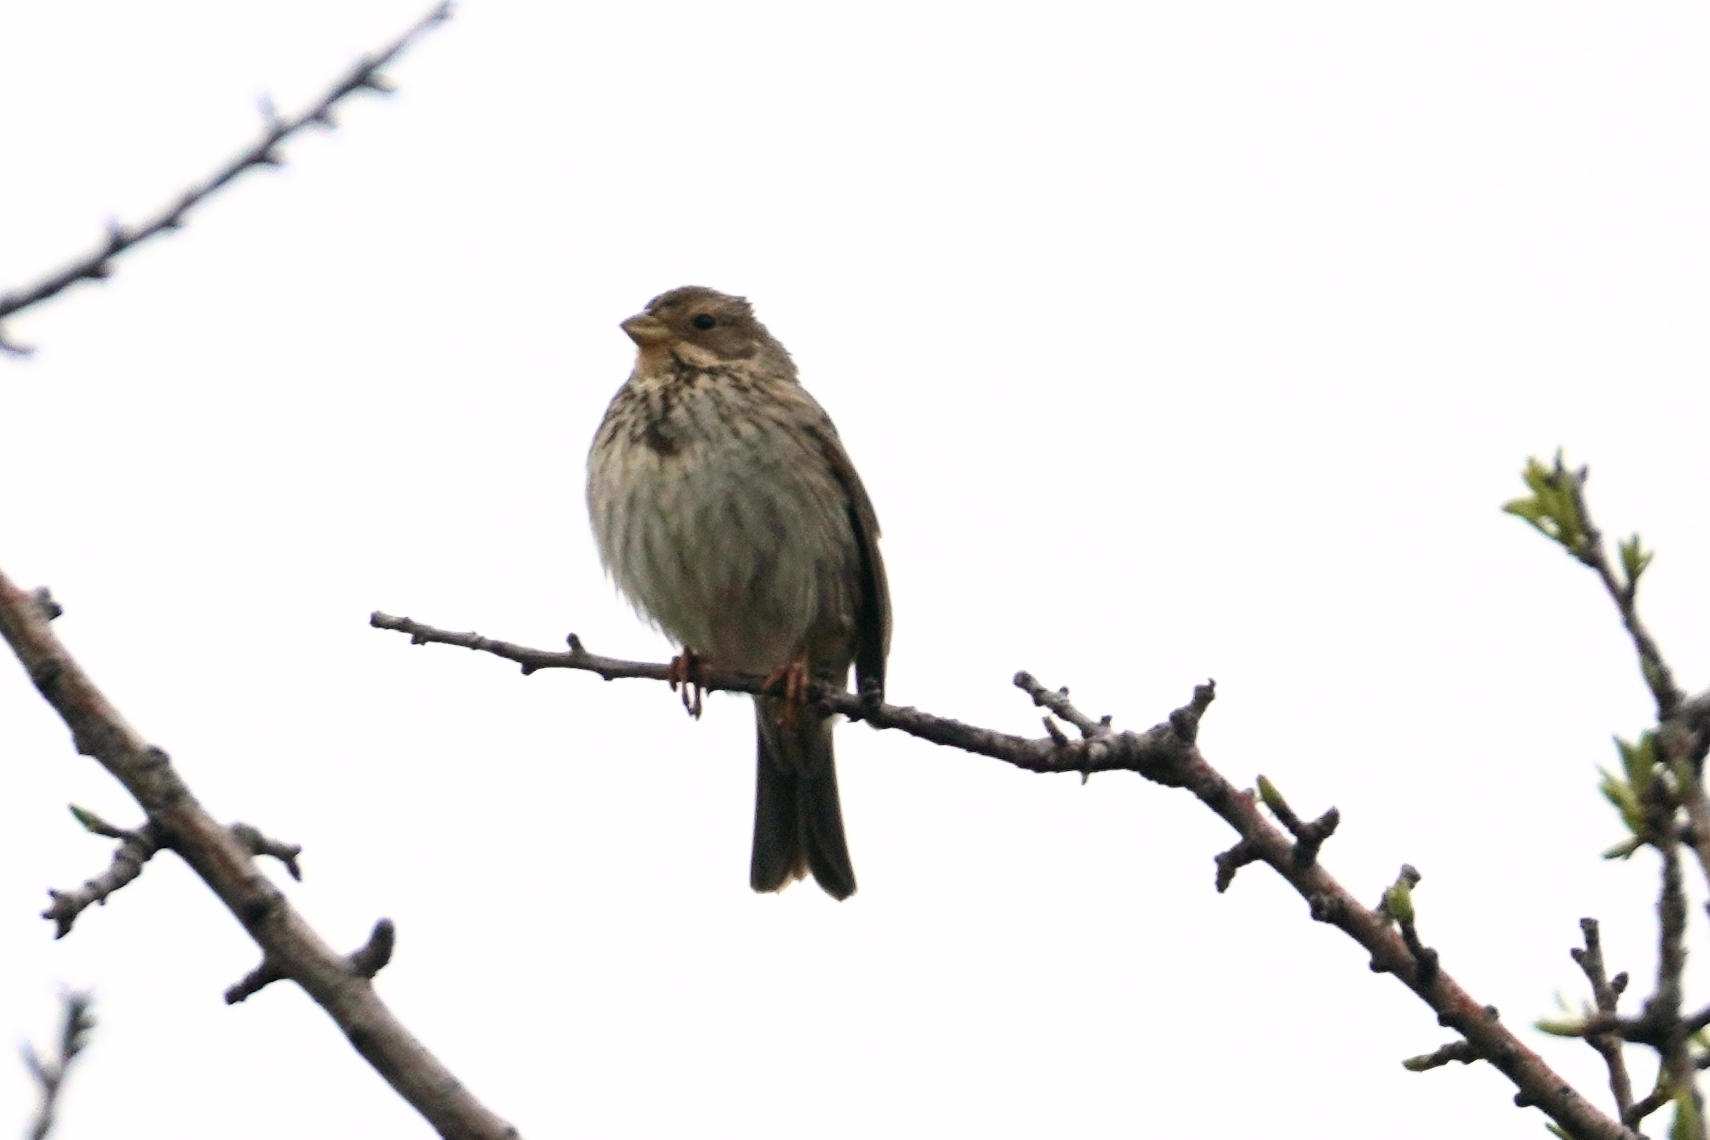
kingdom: Animalia
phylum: Chordata
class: Aves
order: Passeriformes
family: Emberizidae
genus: Emberiza
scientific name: Emberiza calandra
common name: Corn bunting
